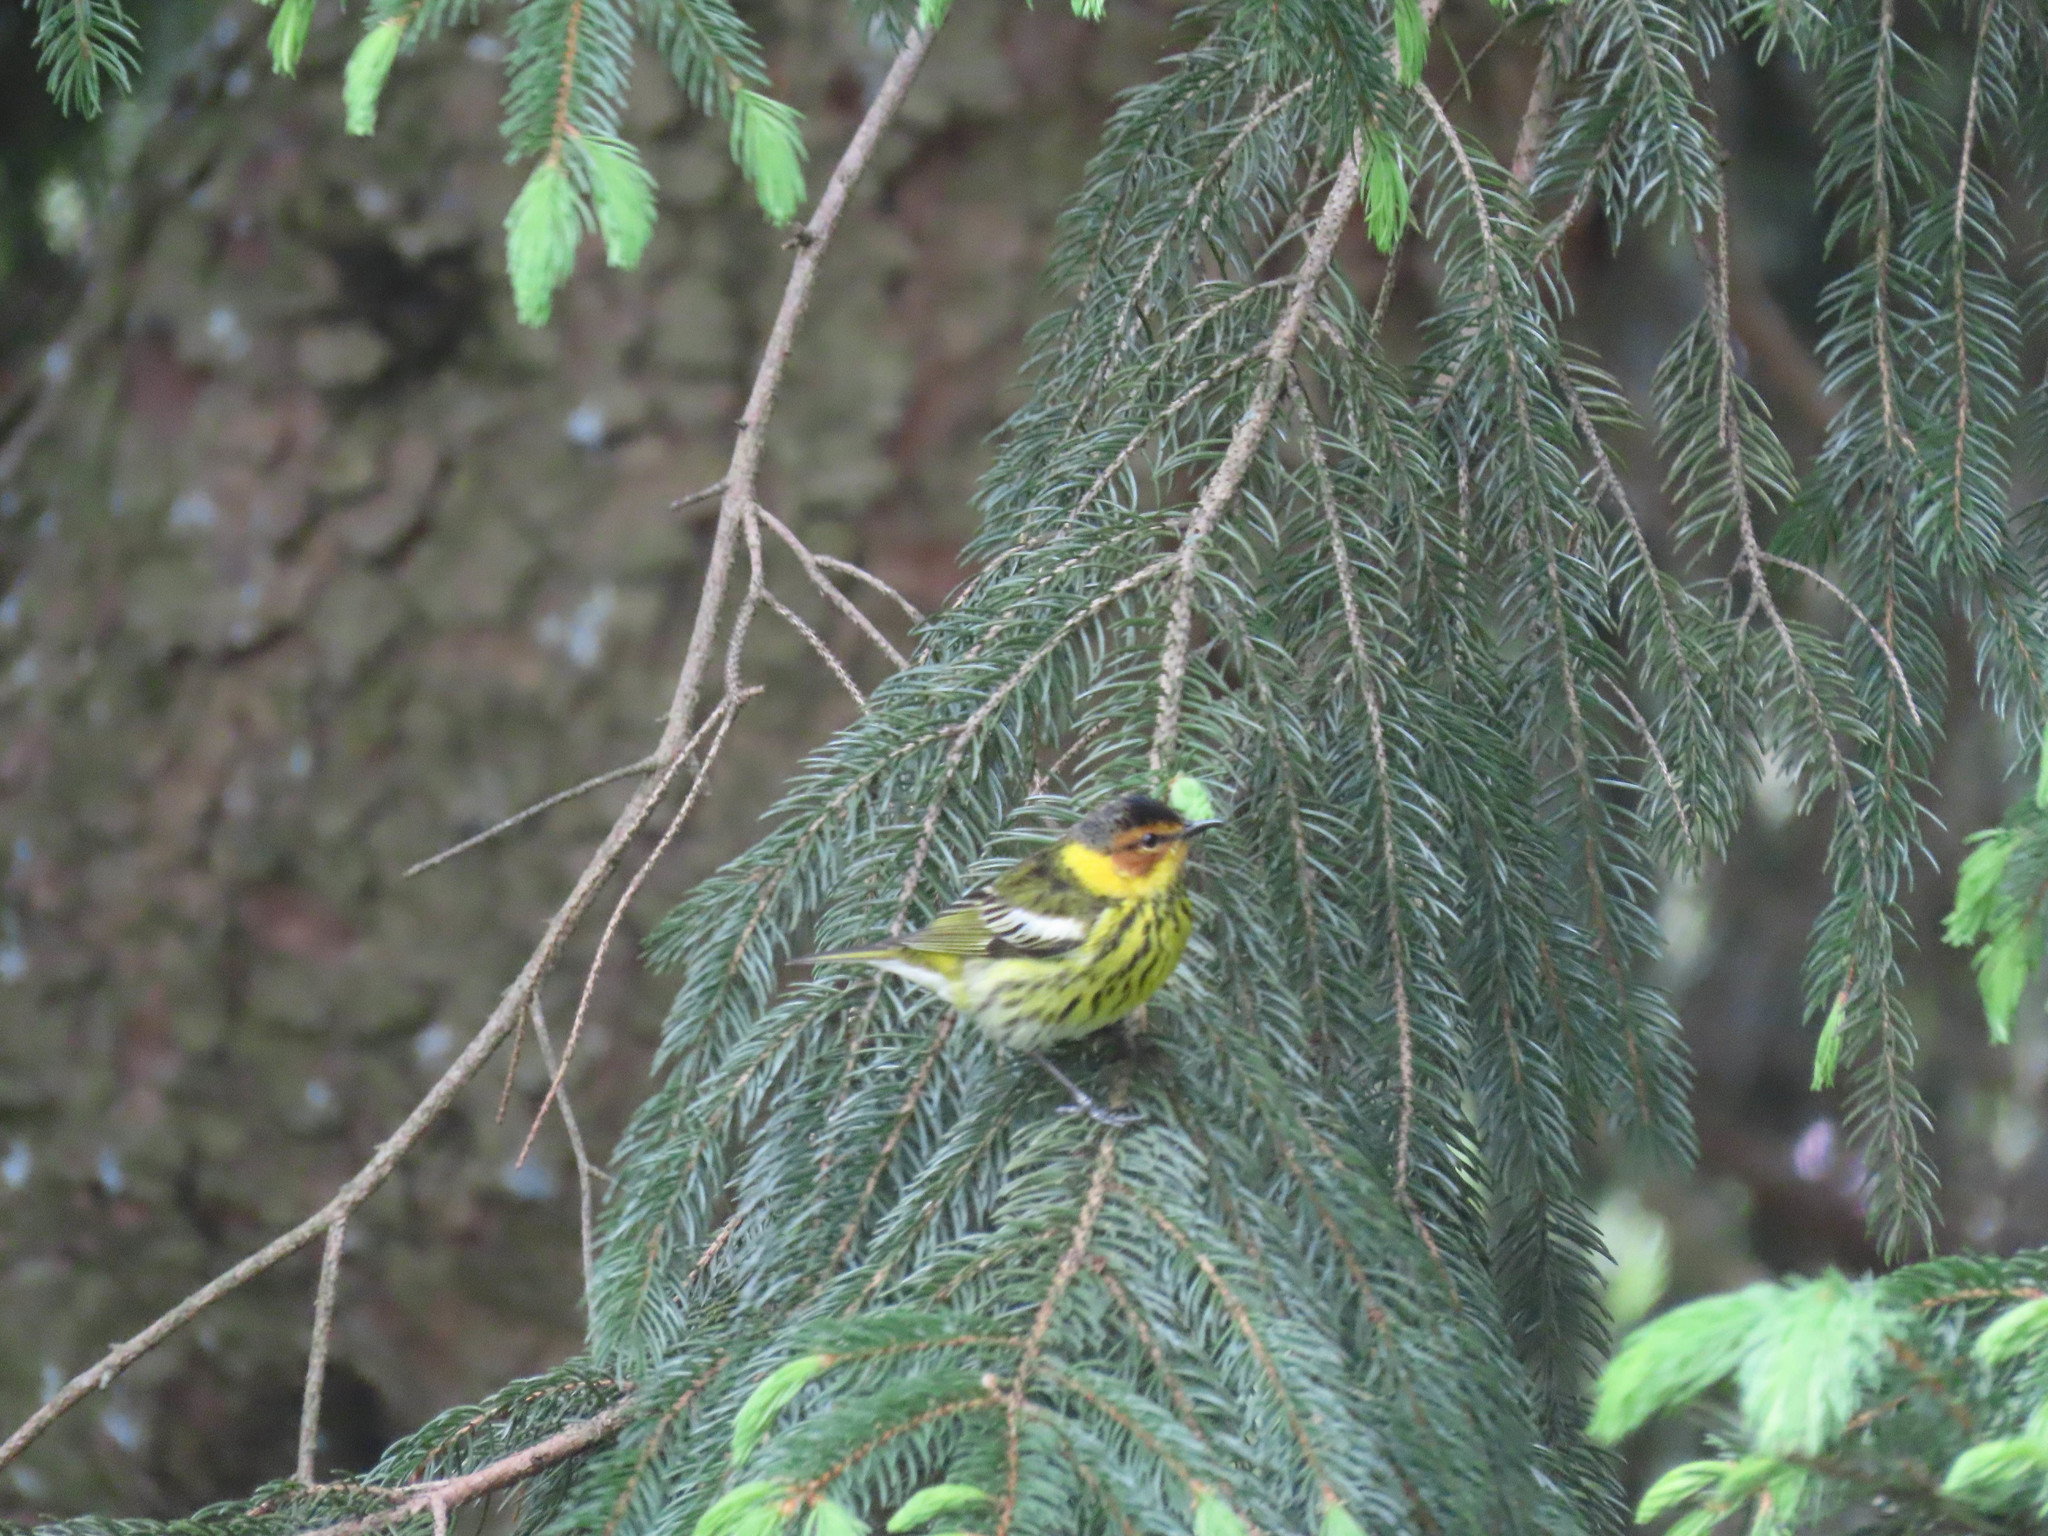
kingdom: Animalia
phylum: Chordata
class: Aves
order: Passeriformes
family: Parulidae
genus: Setophaga
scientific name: Setophaga tigrina
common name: Cape may warbler
